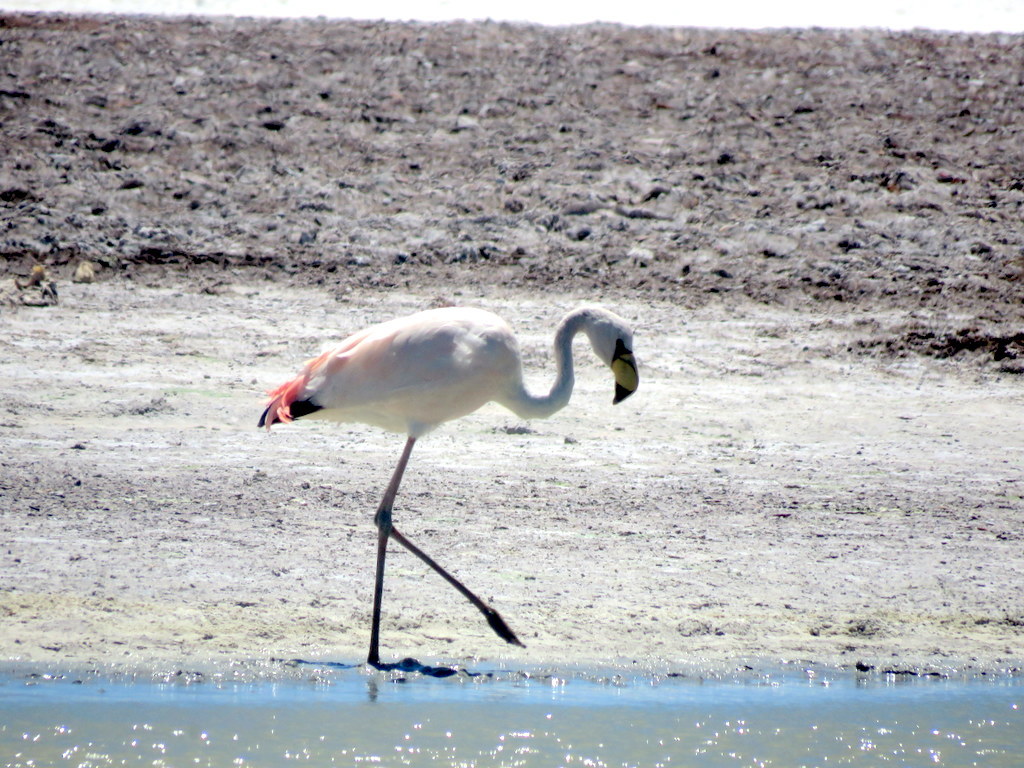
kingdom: Animalia
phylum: Chordata
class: Aves
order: Phoenicopteriformes
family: Phoenicopteridae
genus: Phoenicoparrus
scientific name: Phoenicoparrus jamesi
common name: James's flamingo
